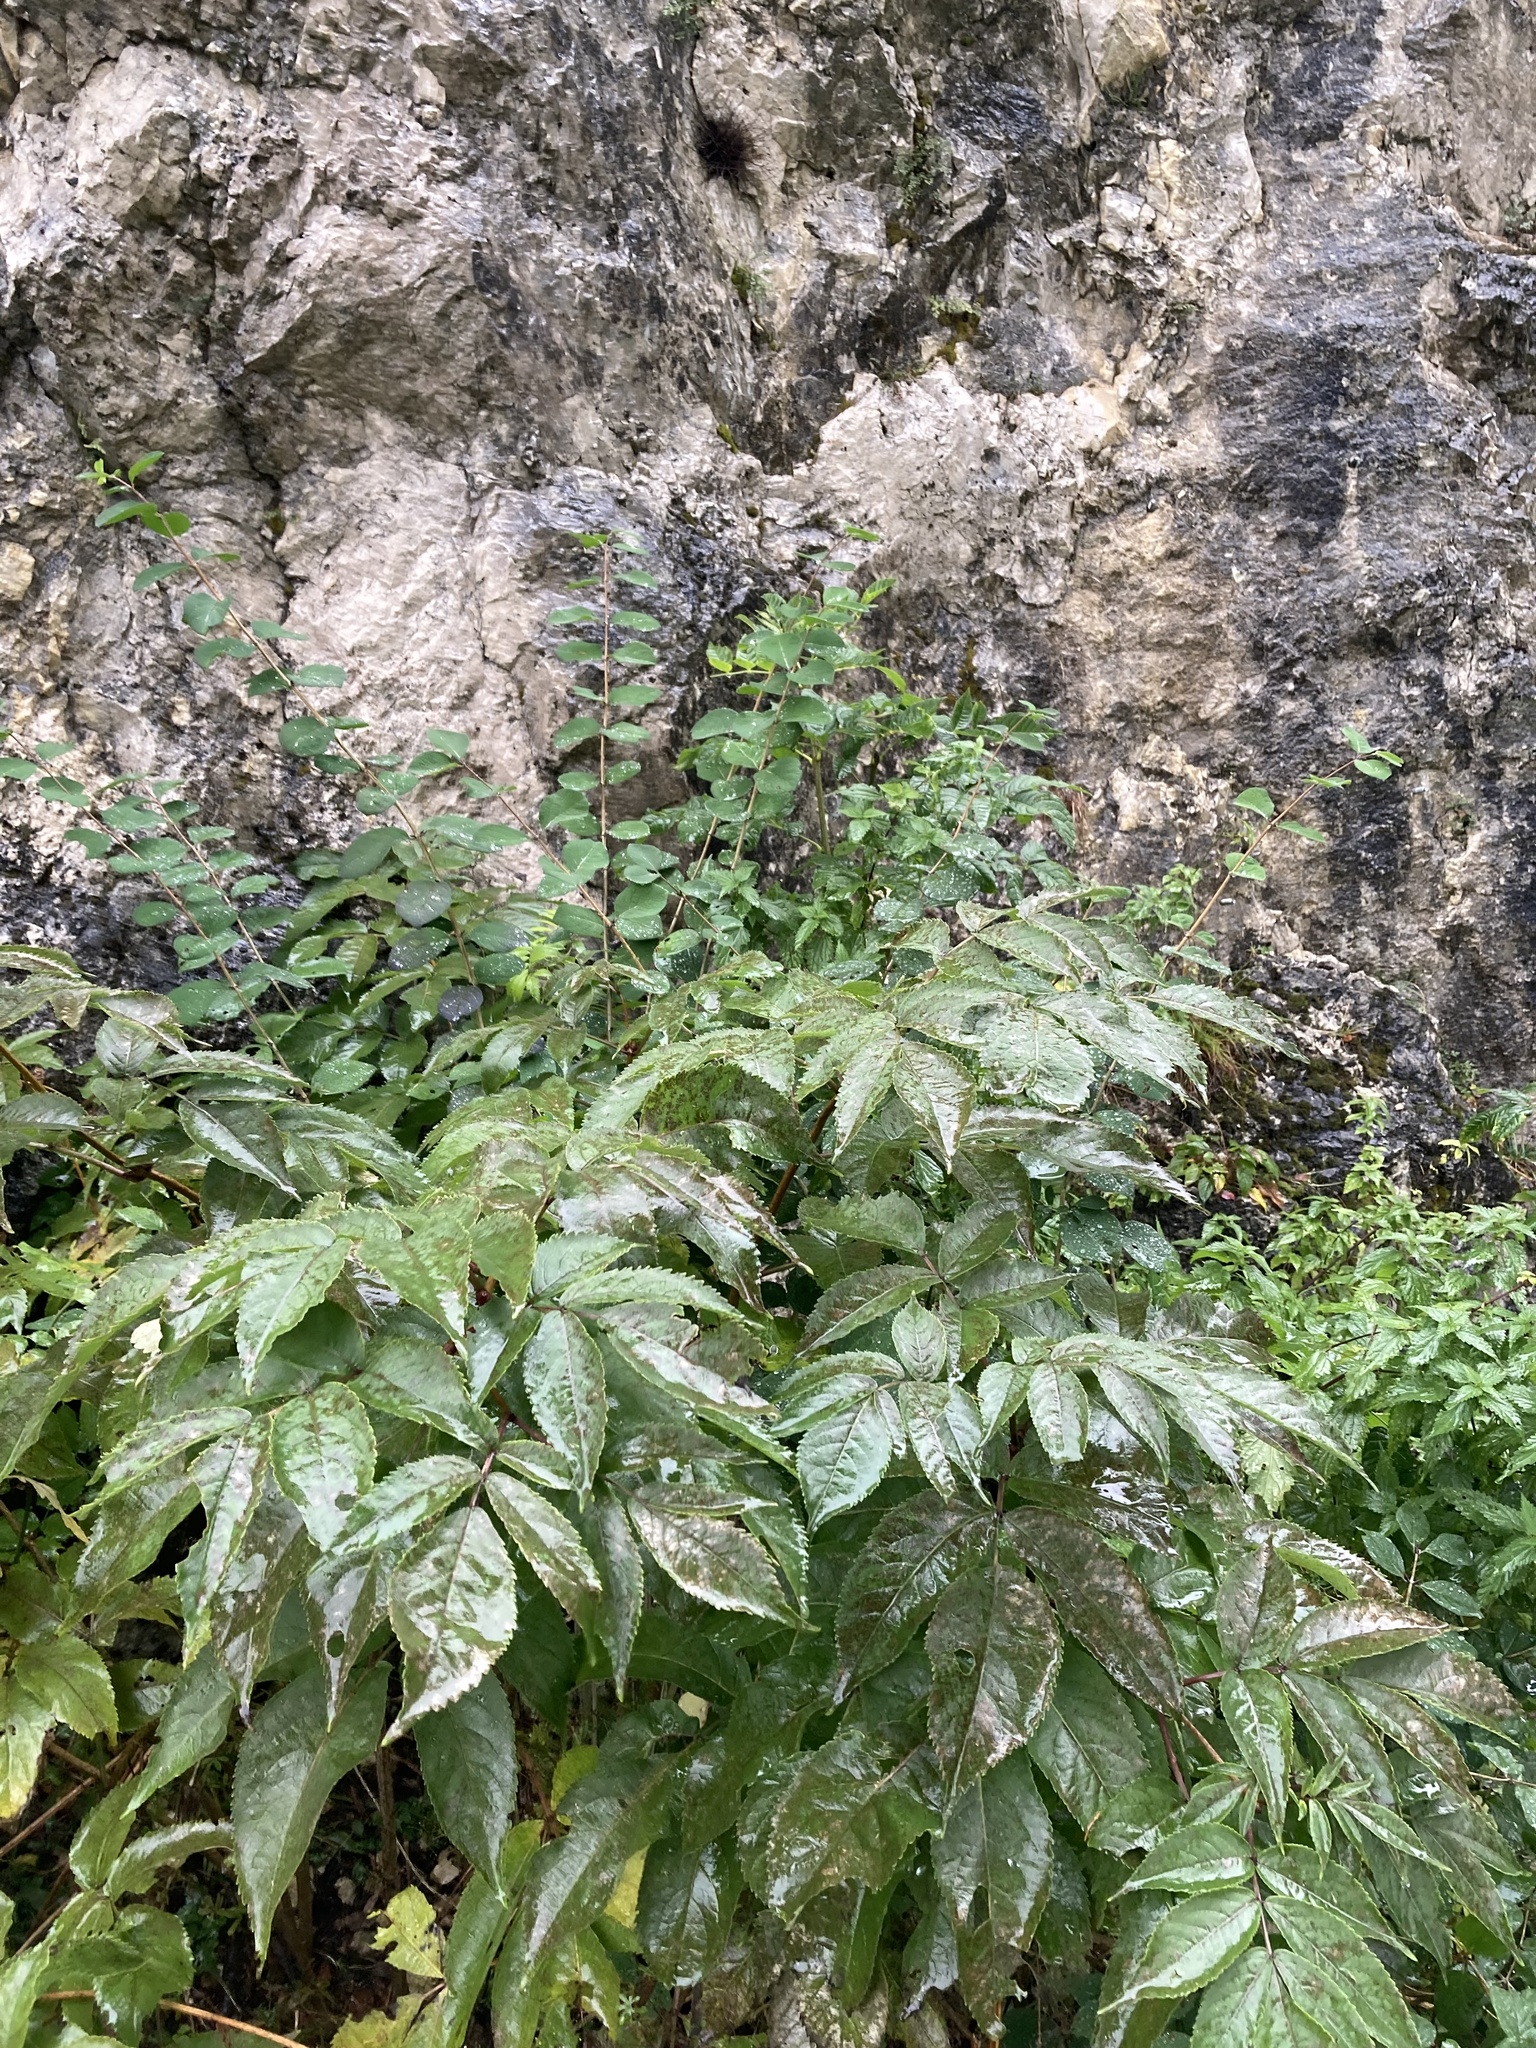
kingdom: Plantae
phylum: Tracheophyta
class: Magnoliopsida
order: Dipsacales
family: Viburnaceae
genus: Sambucus
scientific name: Sambucus racemosa
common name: Red-berried elder
